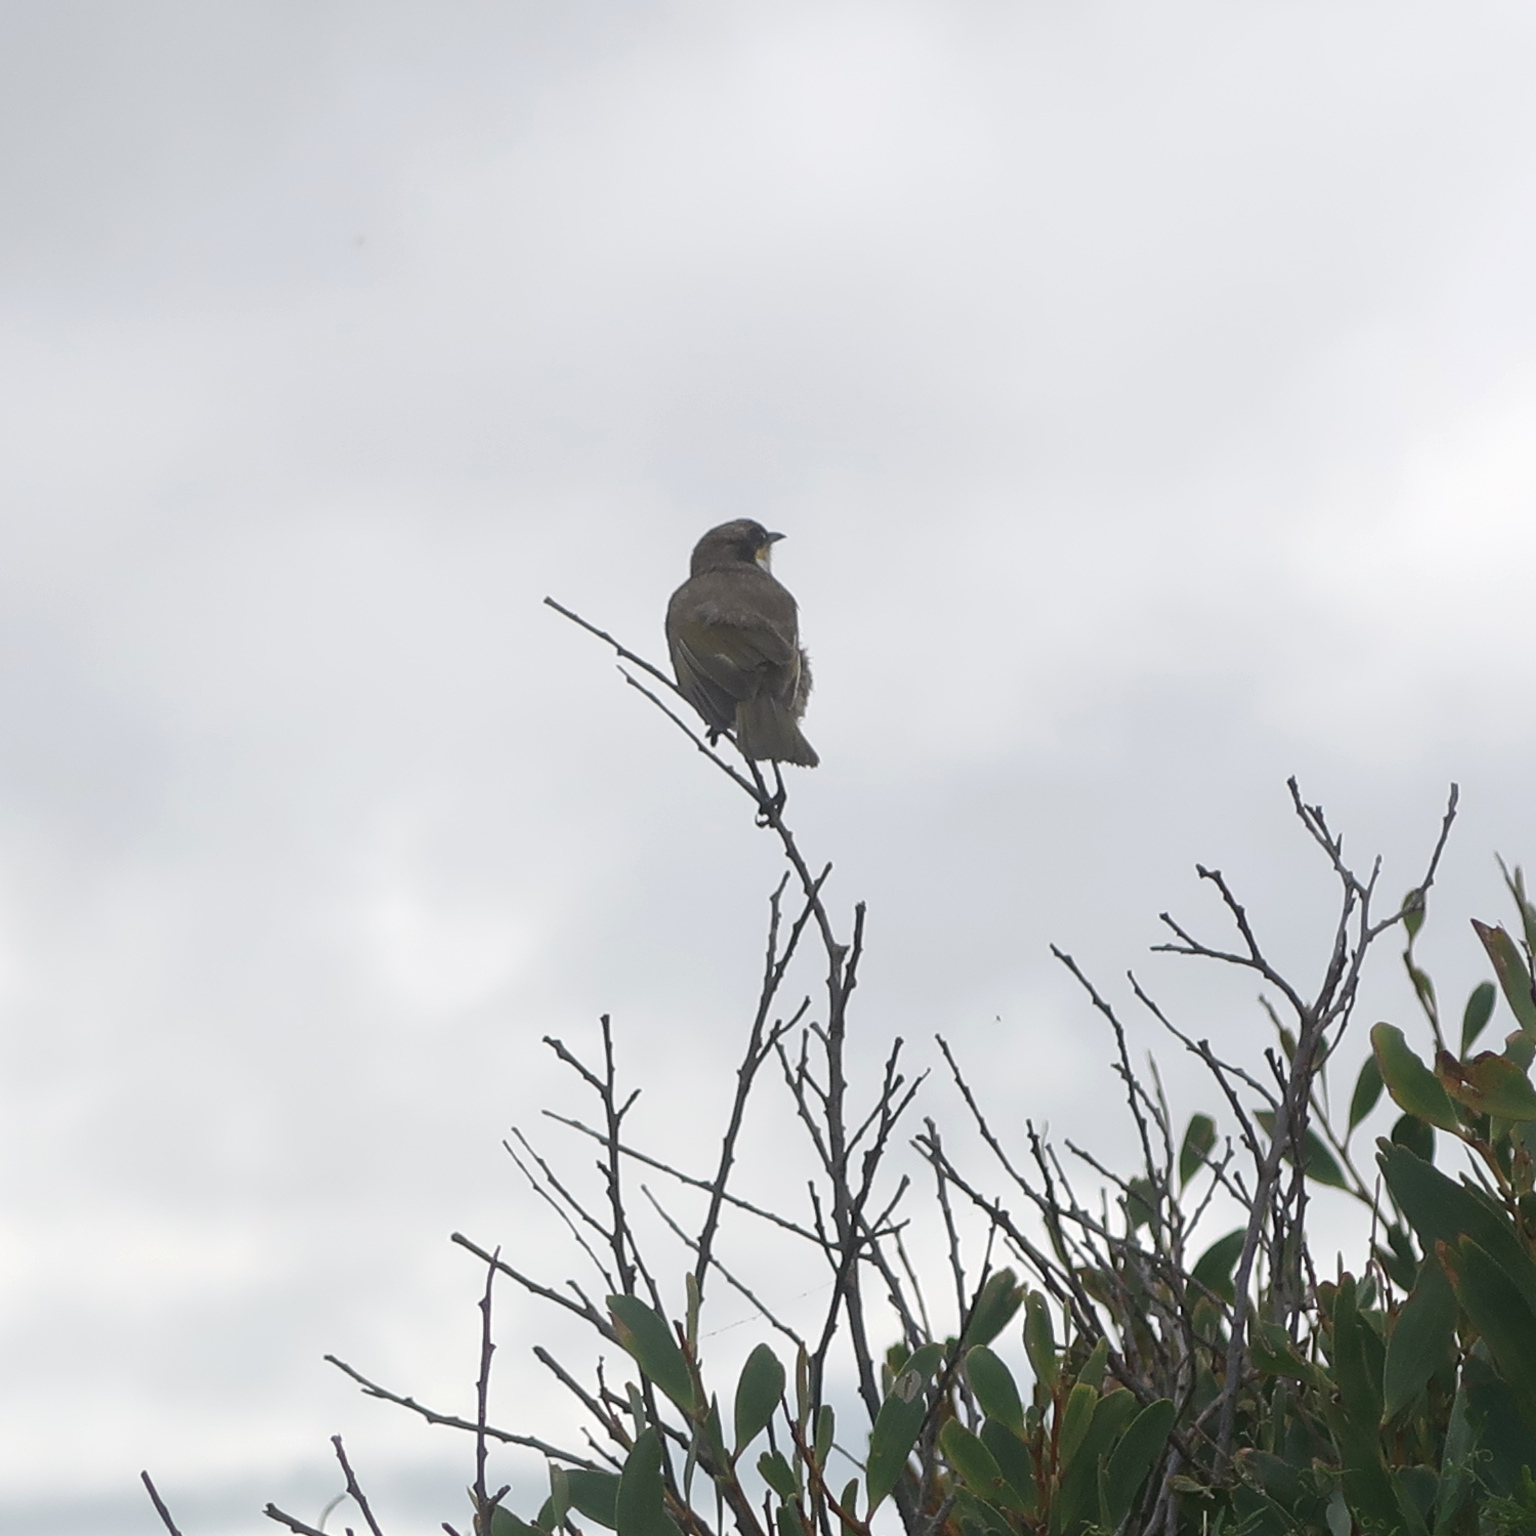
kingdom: Animalia
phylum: Chordata
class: Aves
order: Passeriformes
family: Meliphagidae
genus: Gavicalis
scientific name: Gavicalis virescens
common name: Singing honeyeater
